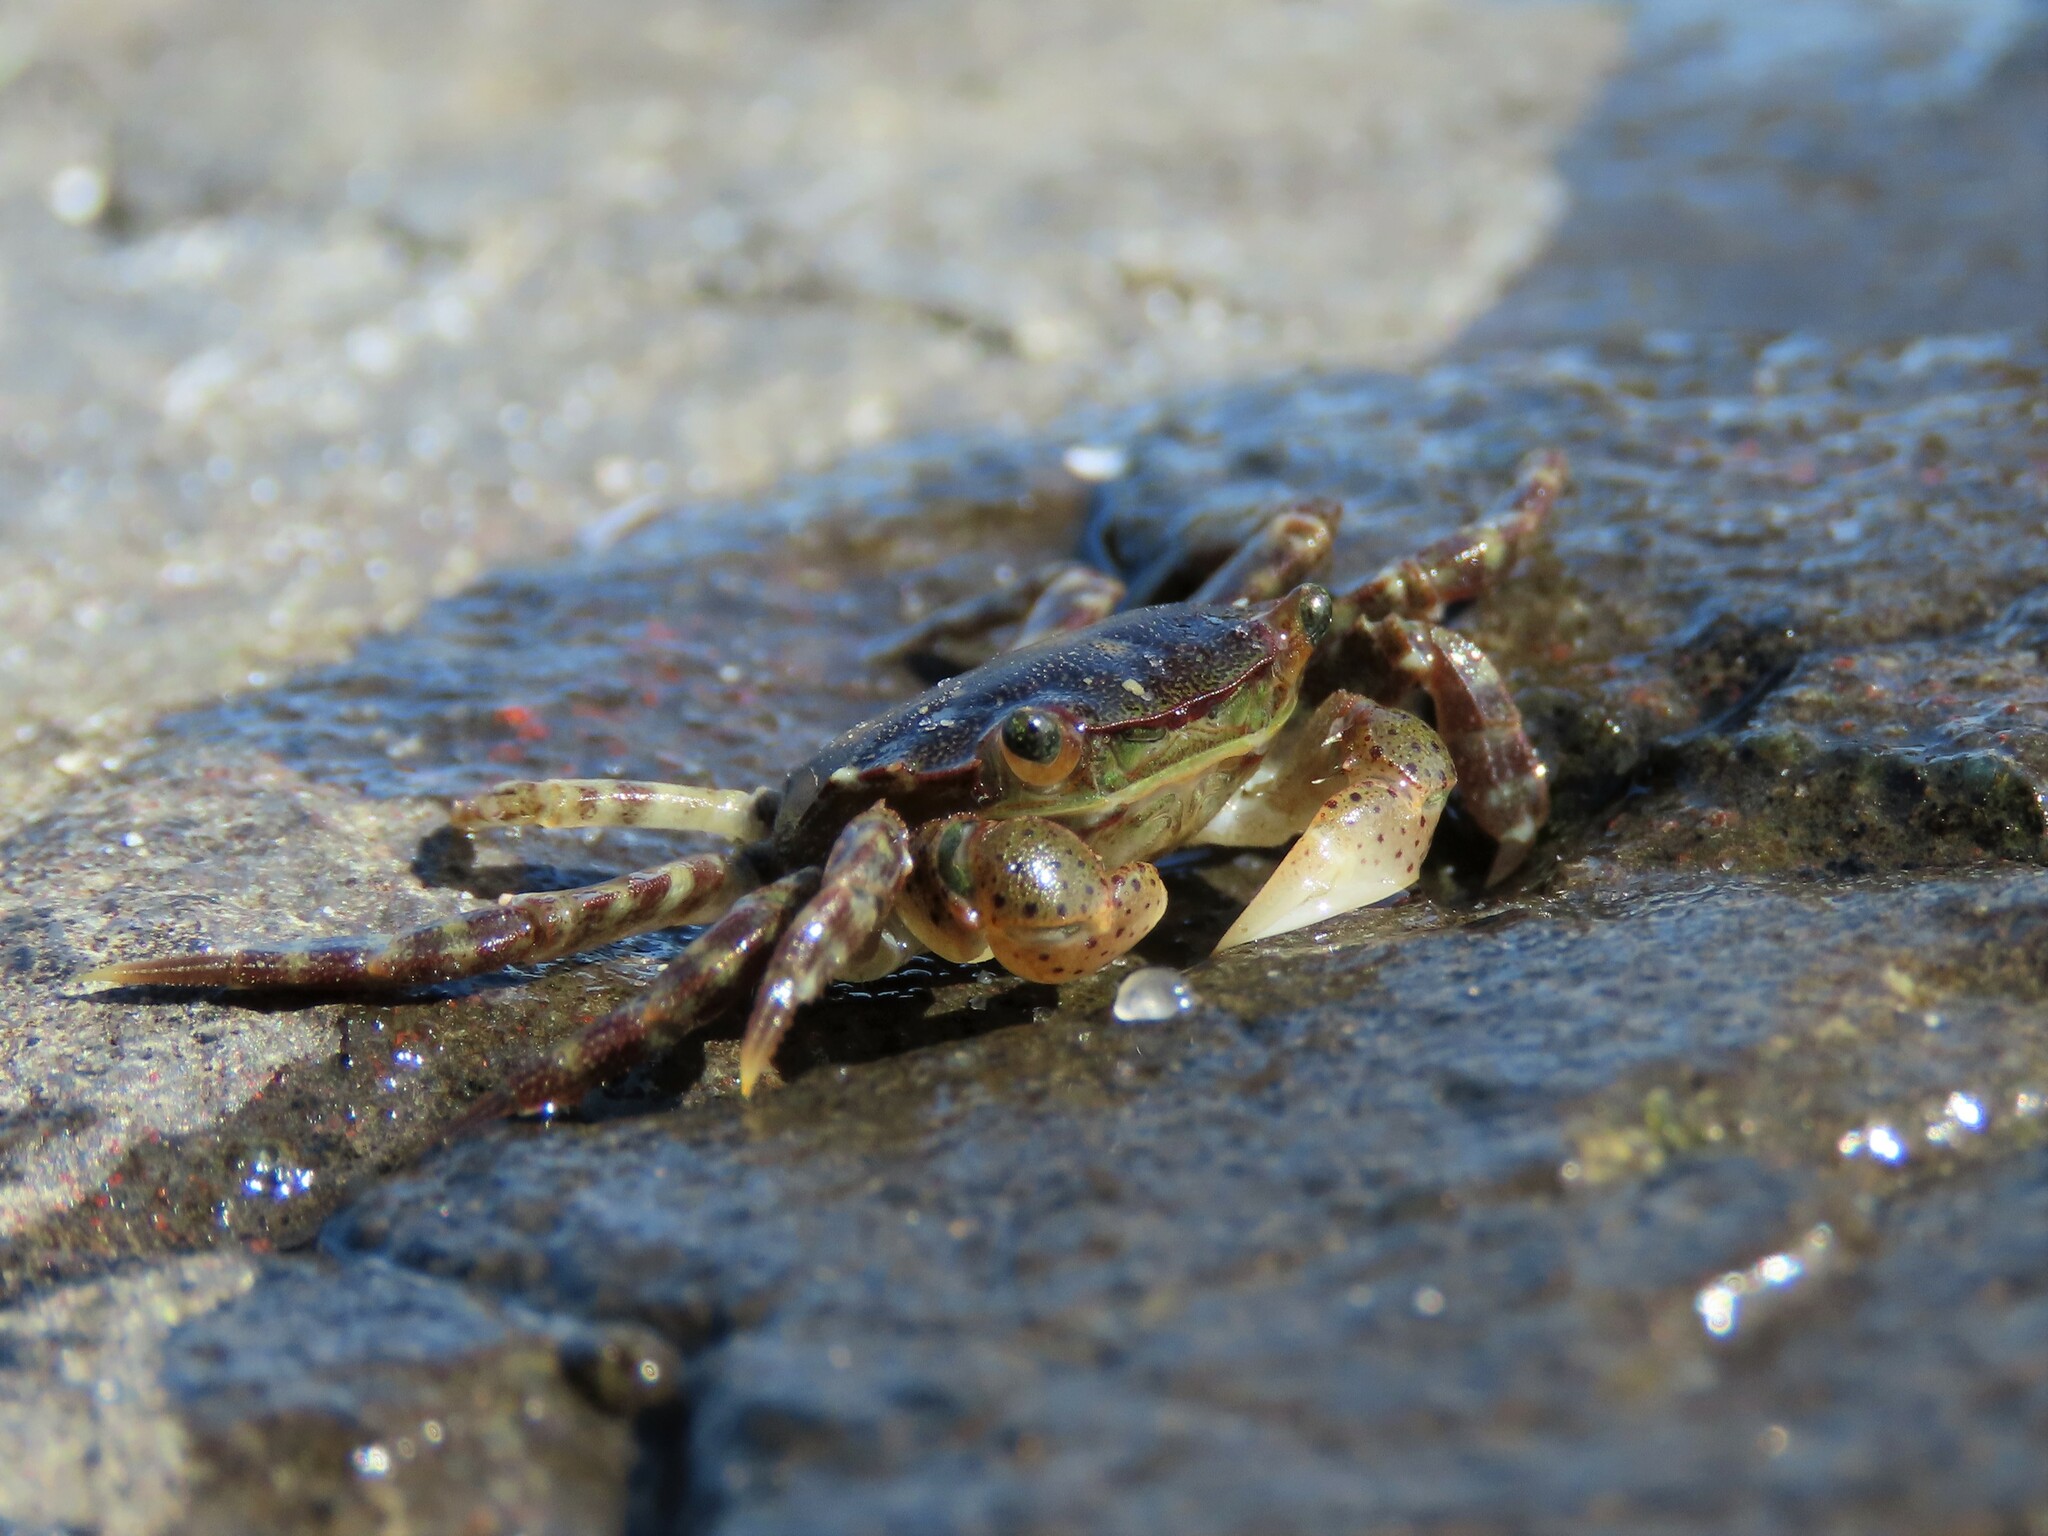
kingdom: Animalia
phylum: Arthropoda
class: Malacostraca
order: Decapoda
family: Varunidae
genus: Hemigrapsus
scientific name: Hemigrapsus sanguineus
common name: Asian shore crab
